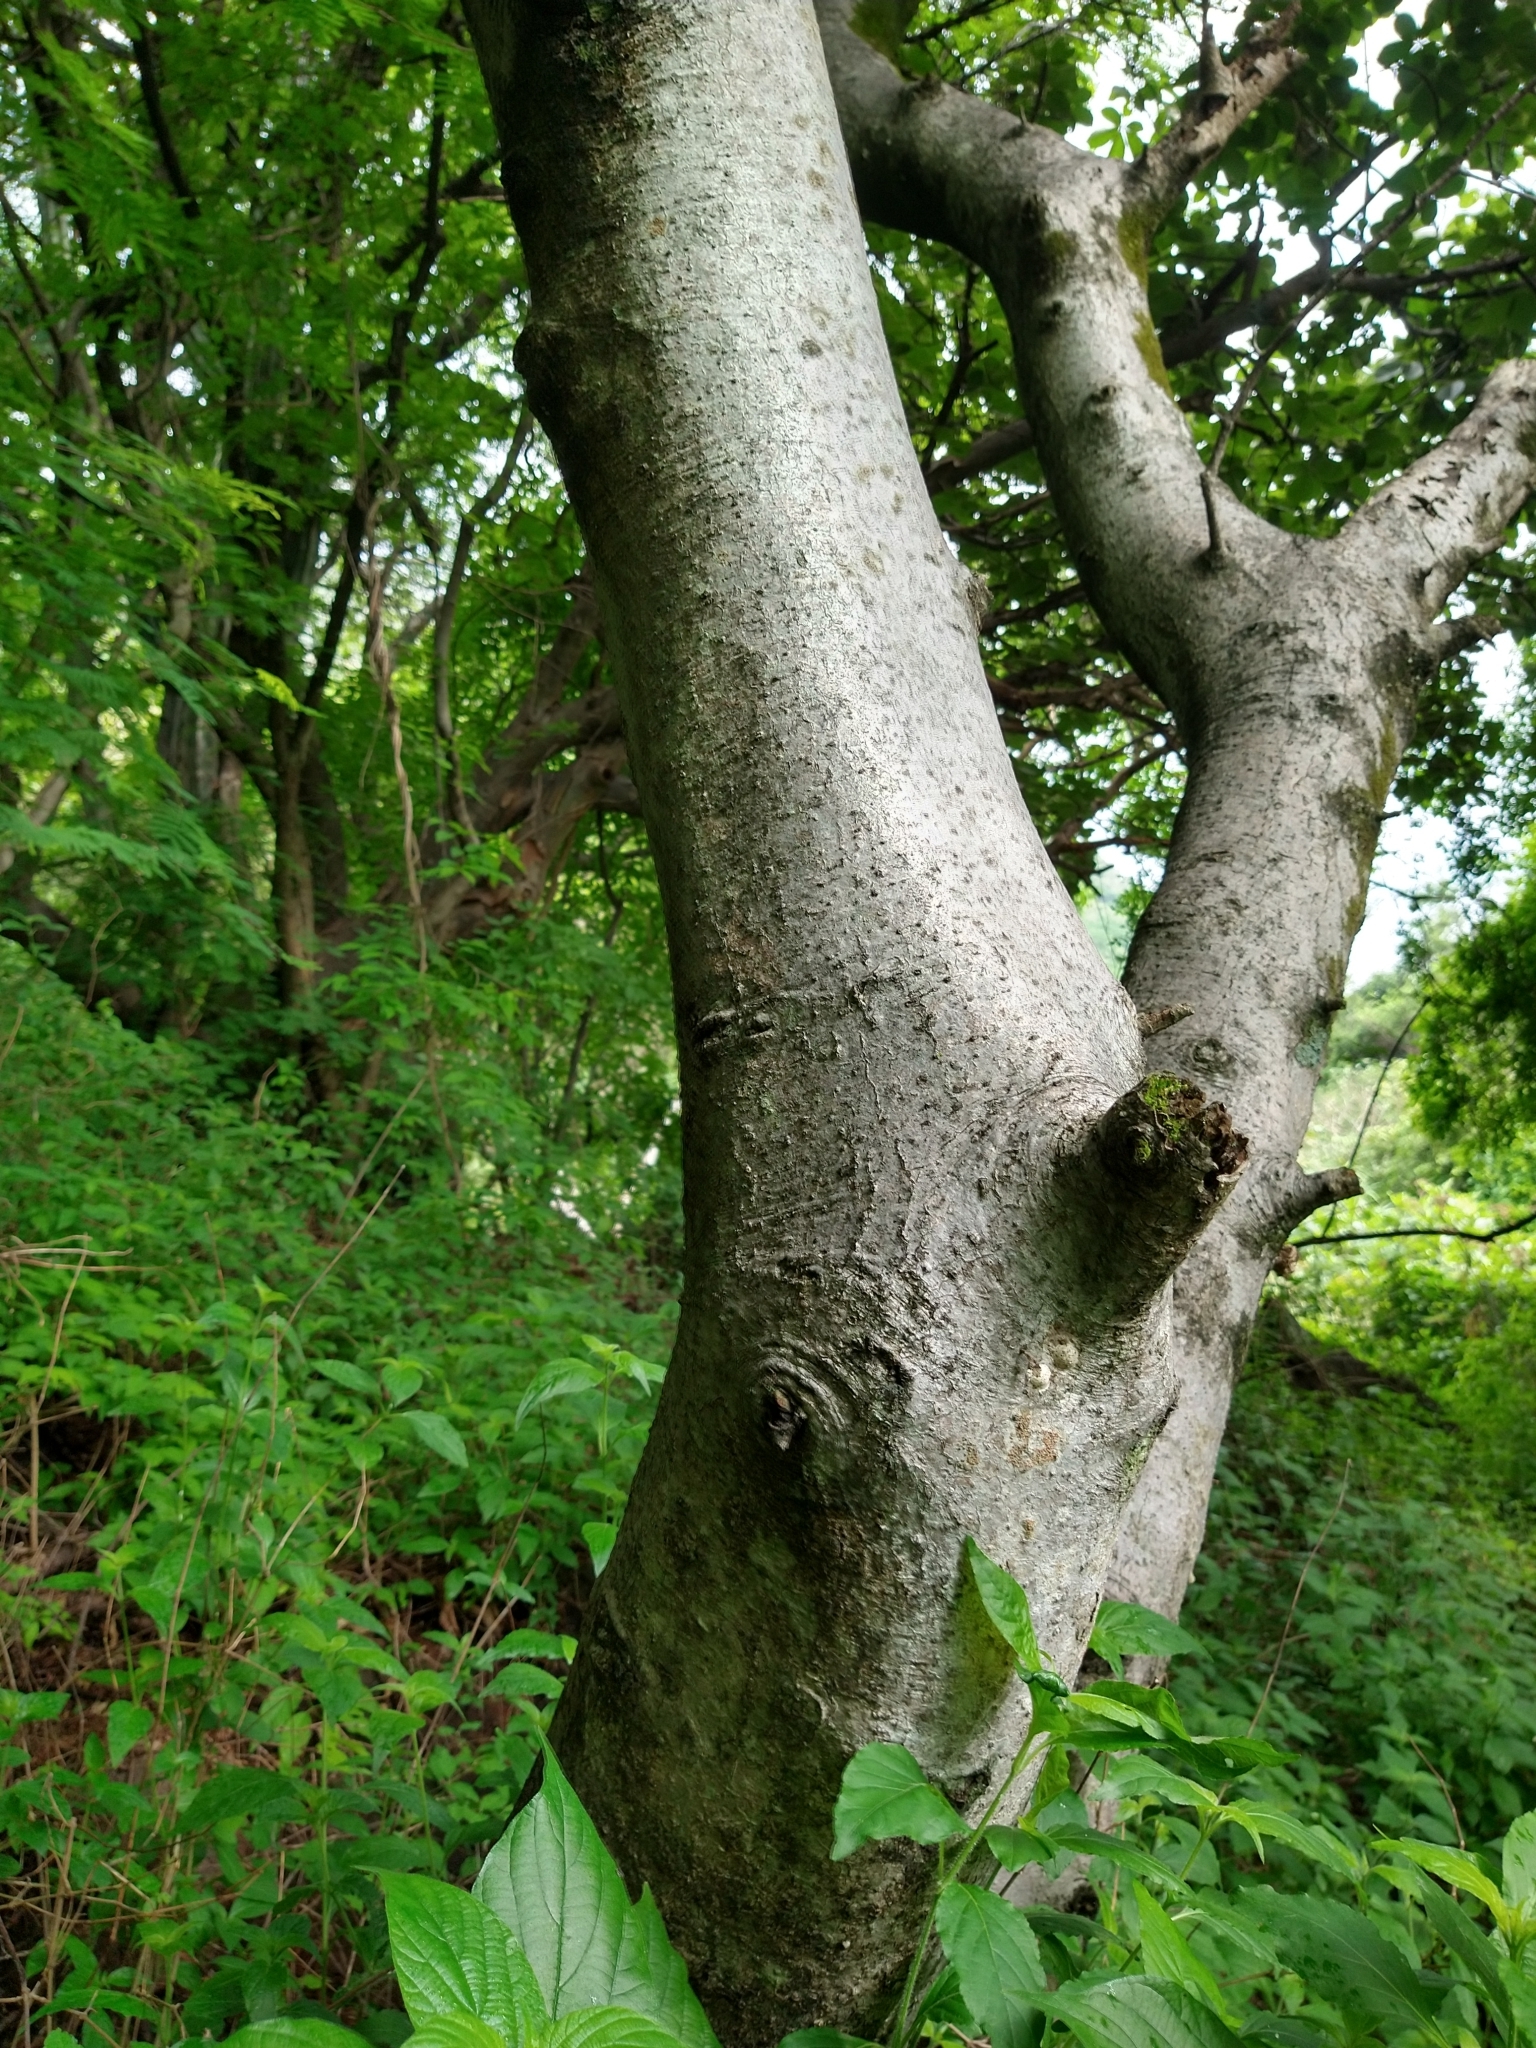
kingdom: Plantae
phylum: Tracheophyta
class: Magnoliopsida
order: Sapindales
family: Burseraceae
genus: Bursera
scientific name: Bursera copallifera
